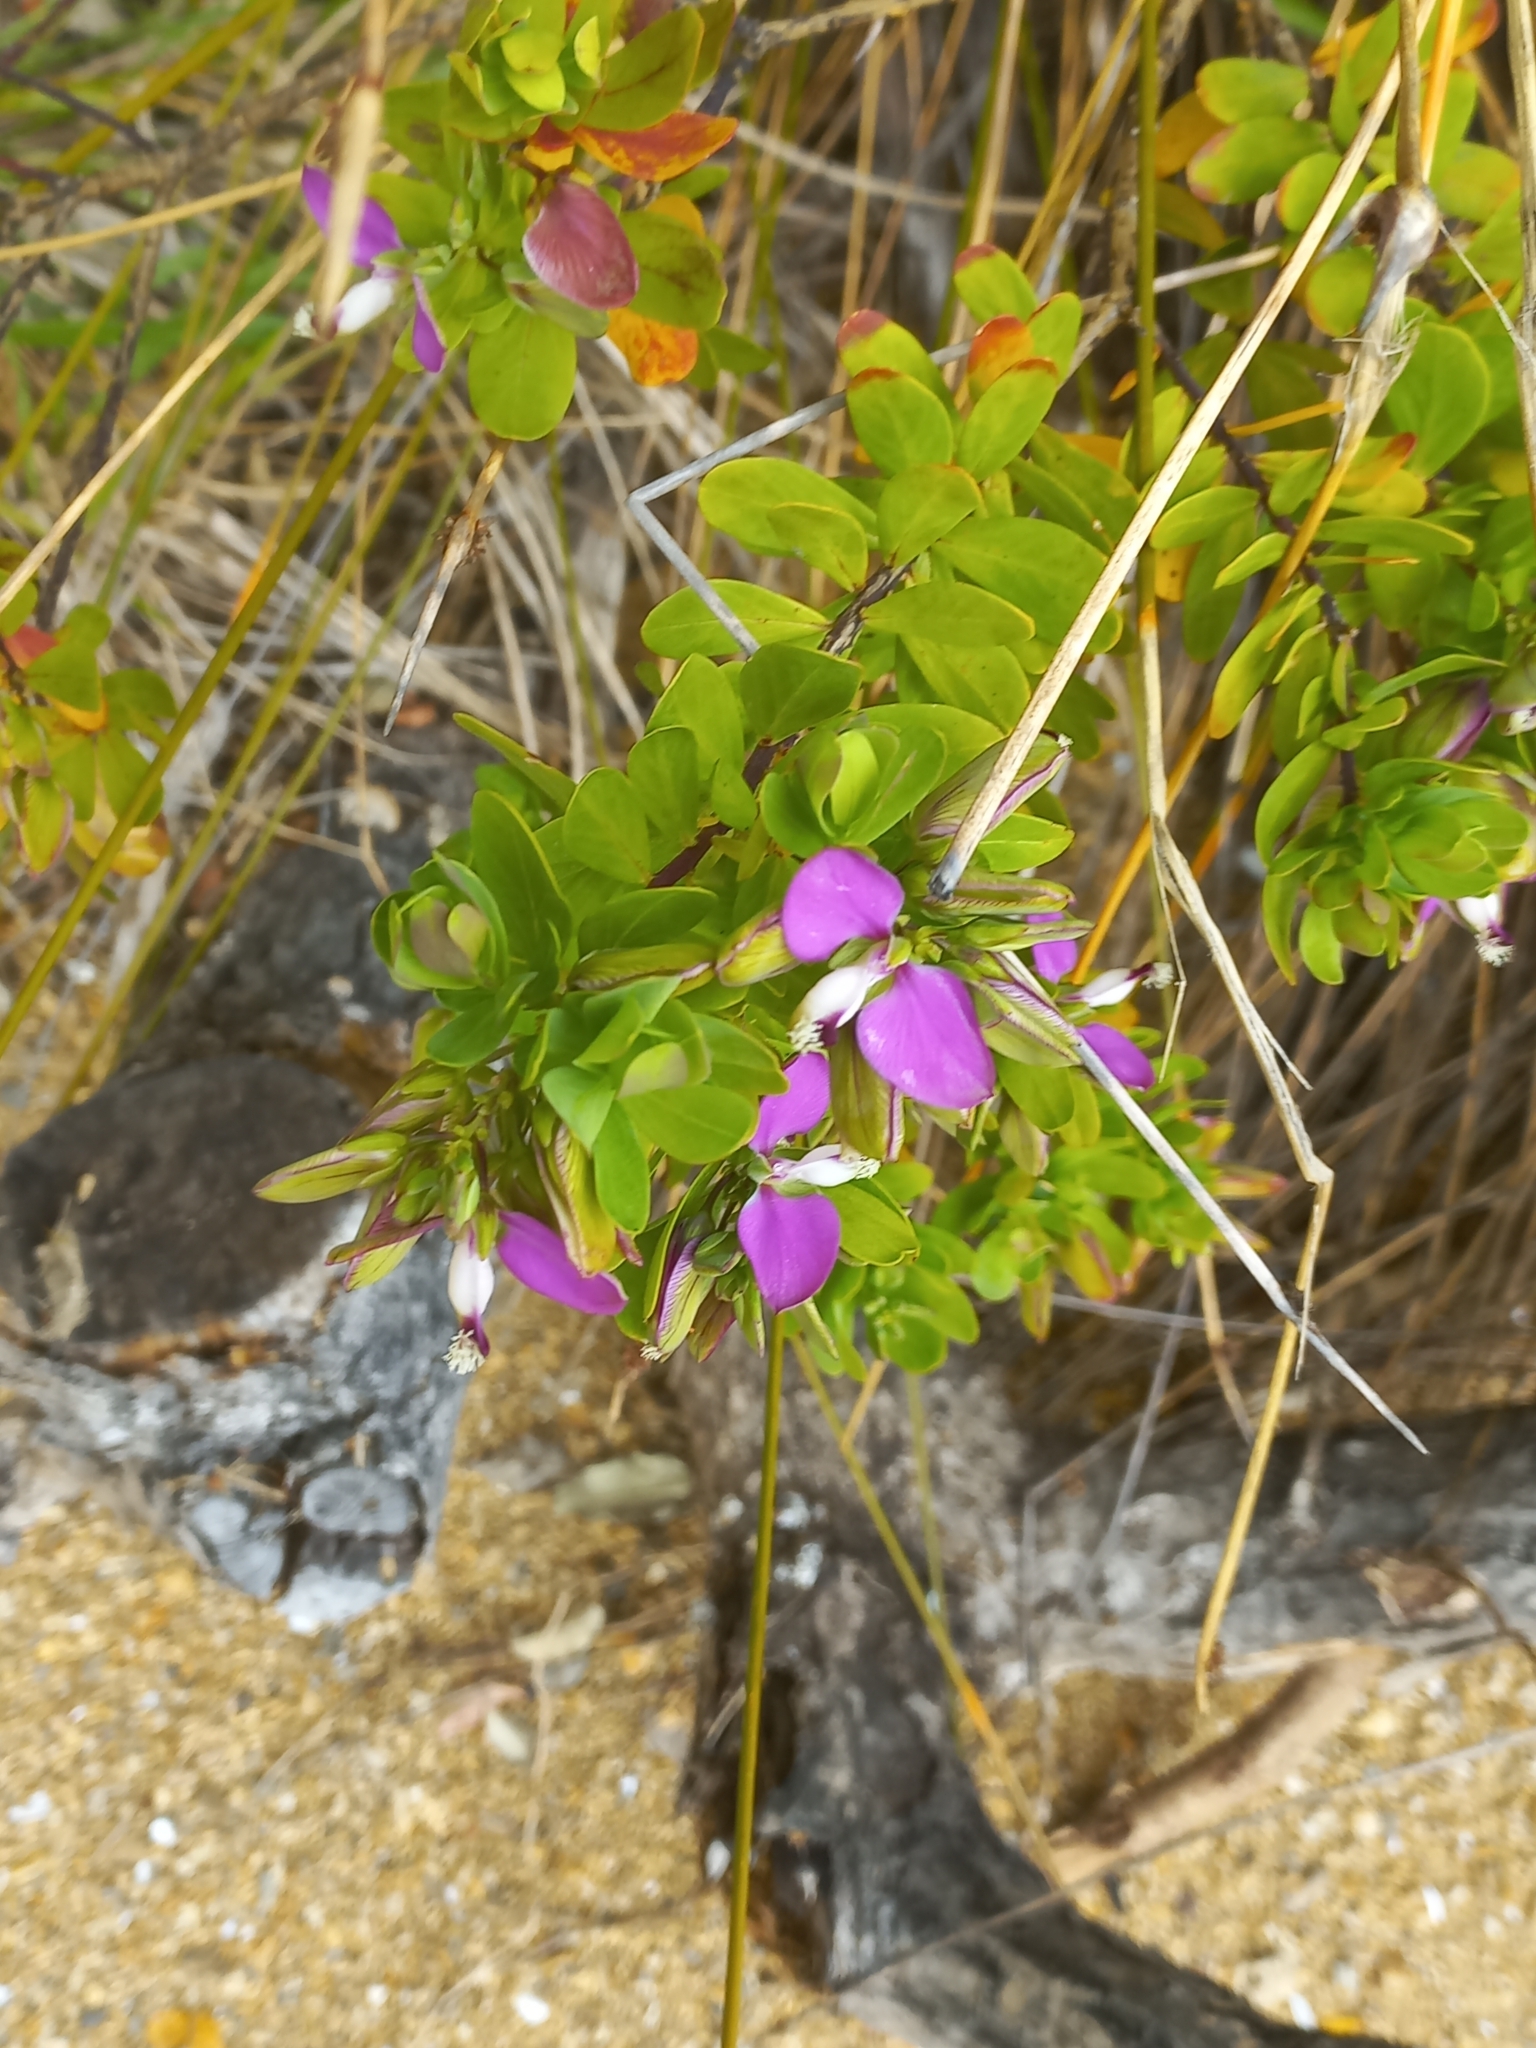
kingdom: Plantae
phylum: Tracheophyta
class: Magnoliopsida
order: Fabales
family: Polygalaceae
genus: Polygala
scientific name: Polygala myrtifolia
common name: Myrtle-leaf milkwort
